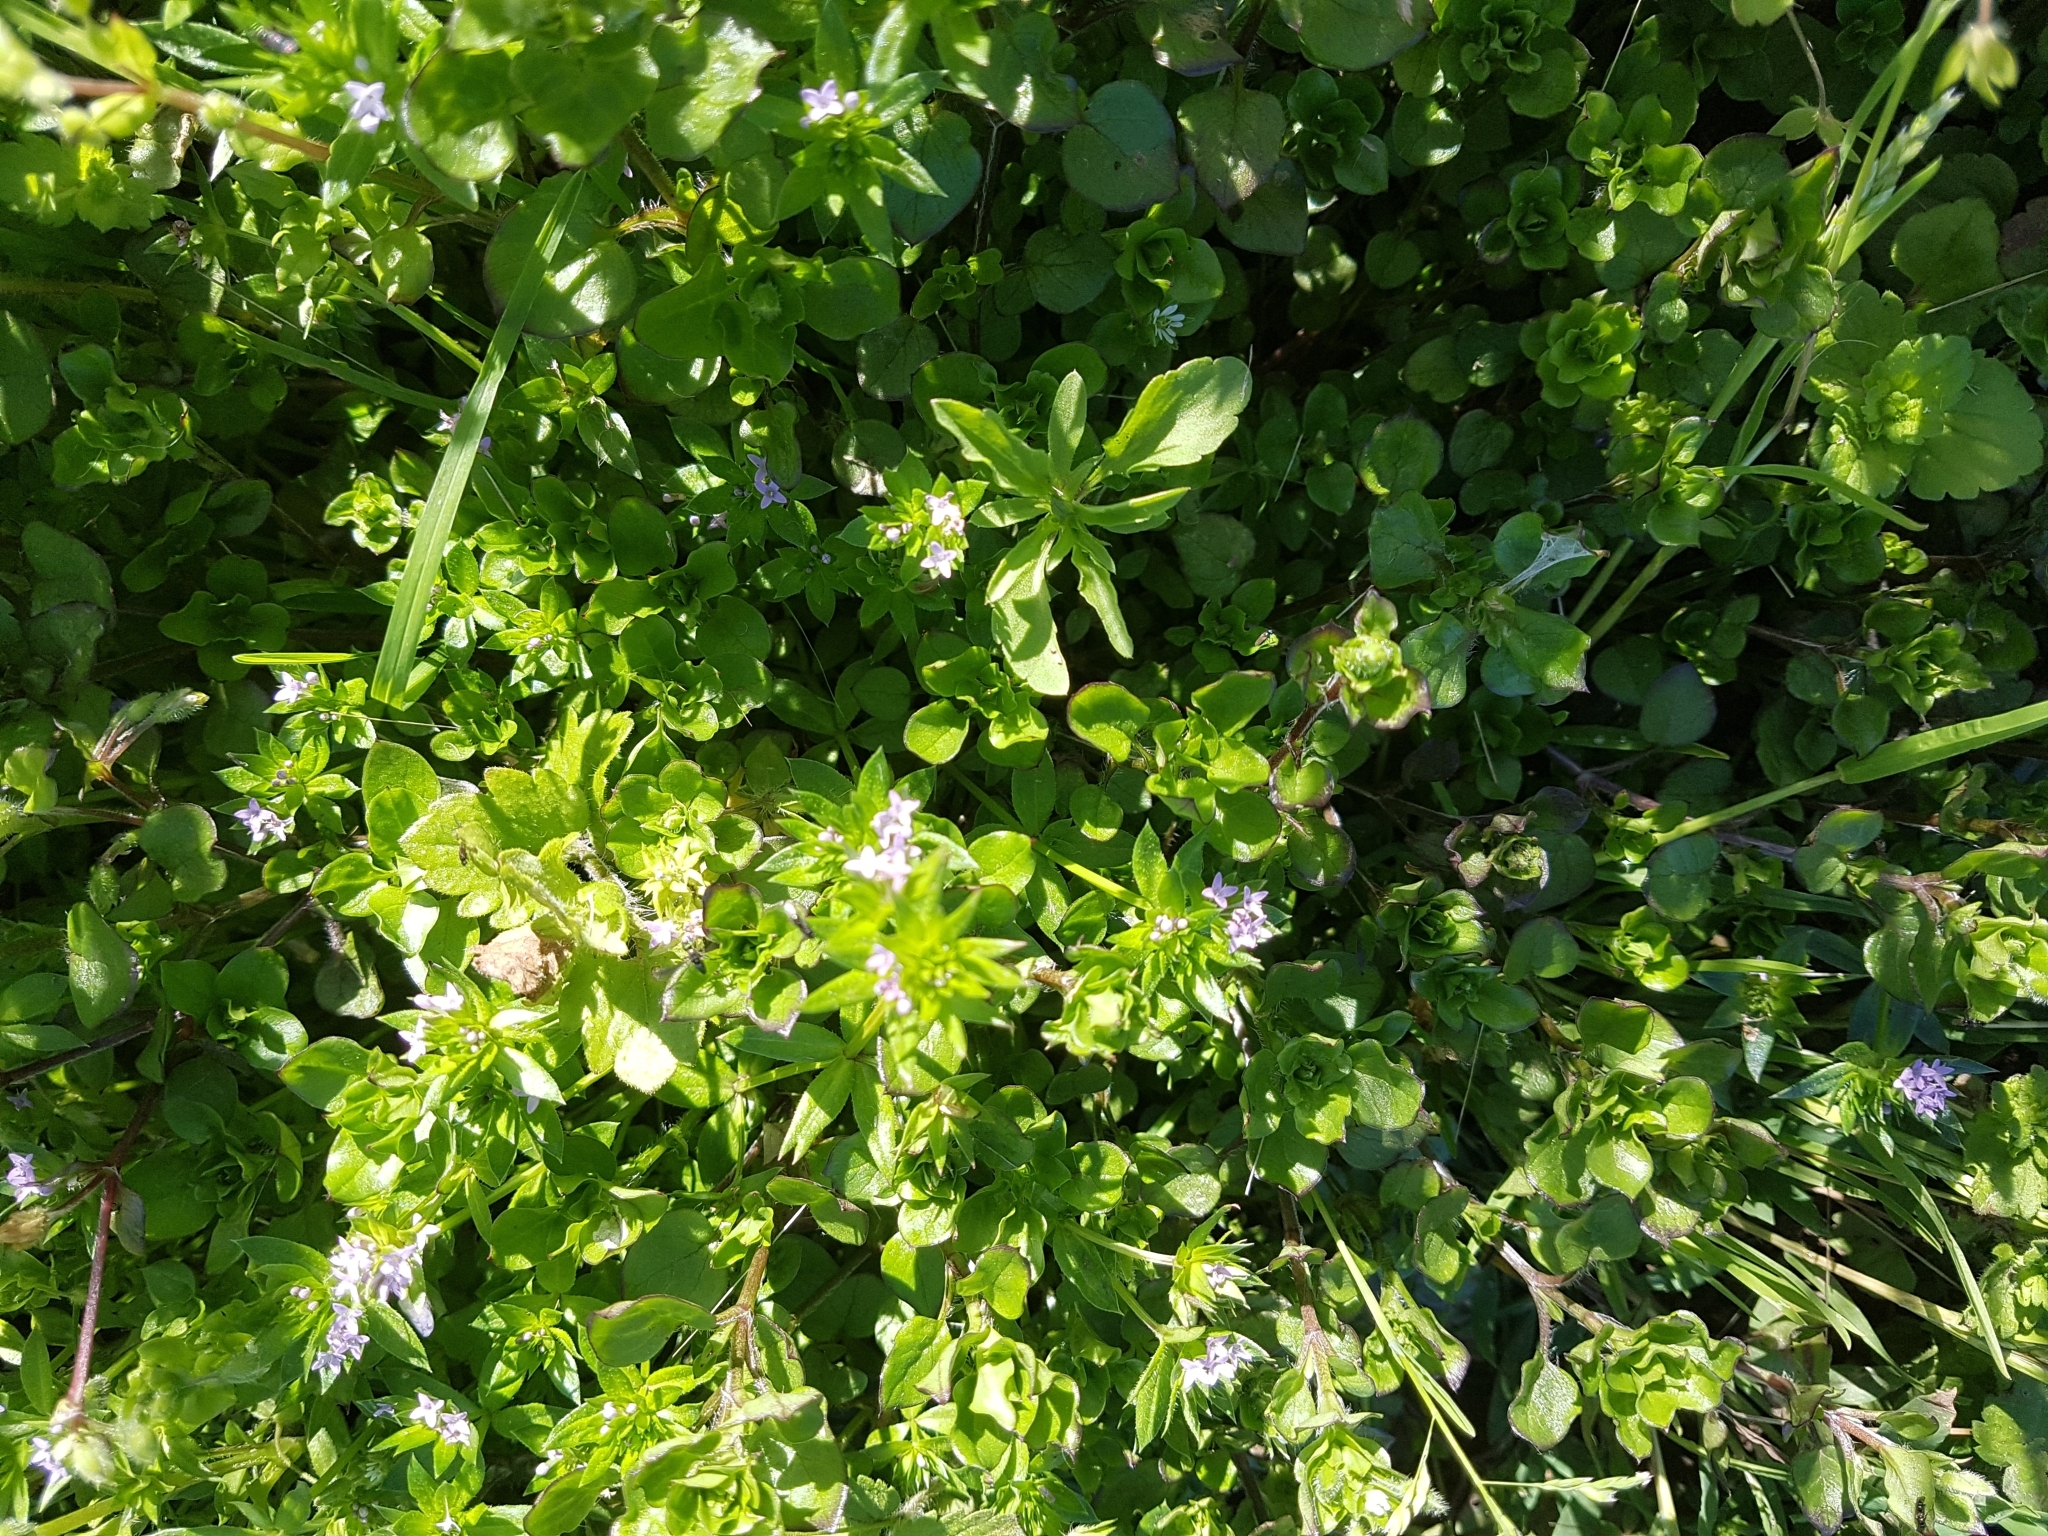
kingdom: Plantae
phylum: Tracheophyta
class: Magnoliopsida
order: Gentianales
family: Rubiaceae
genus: Sherardia
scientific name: Sherardia arvensis
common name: Field madder
